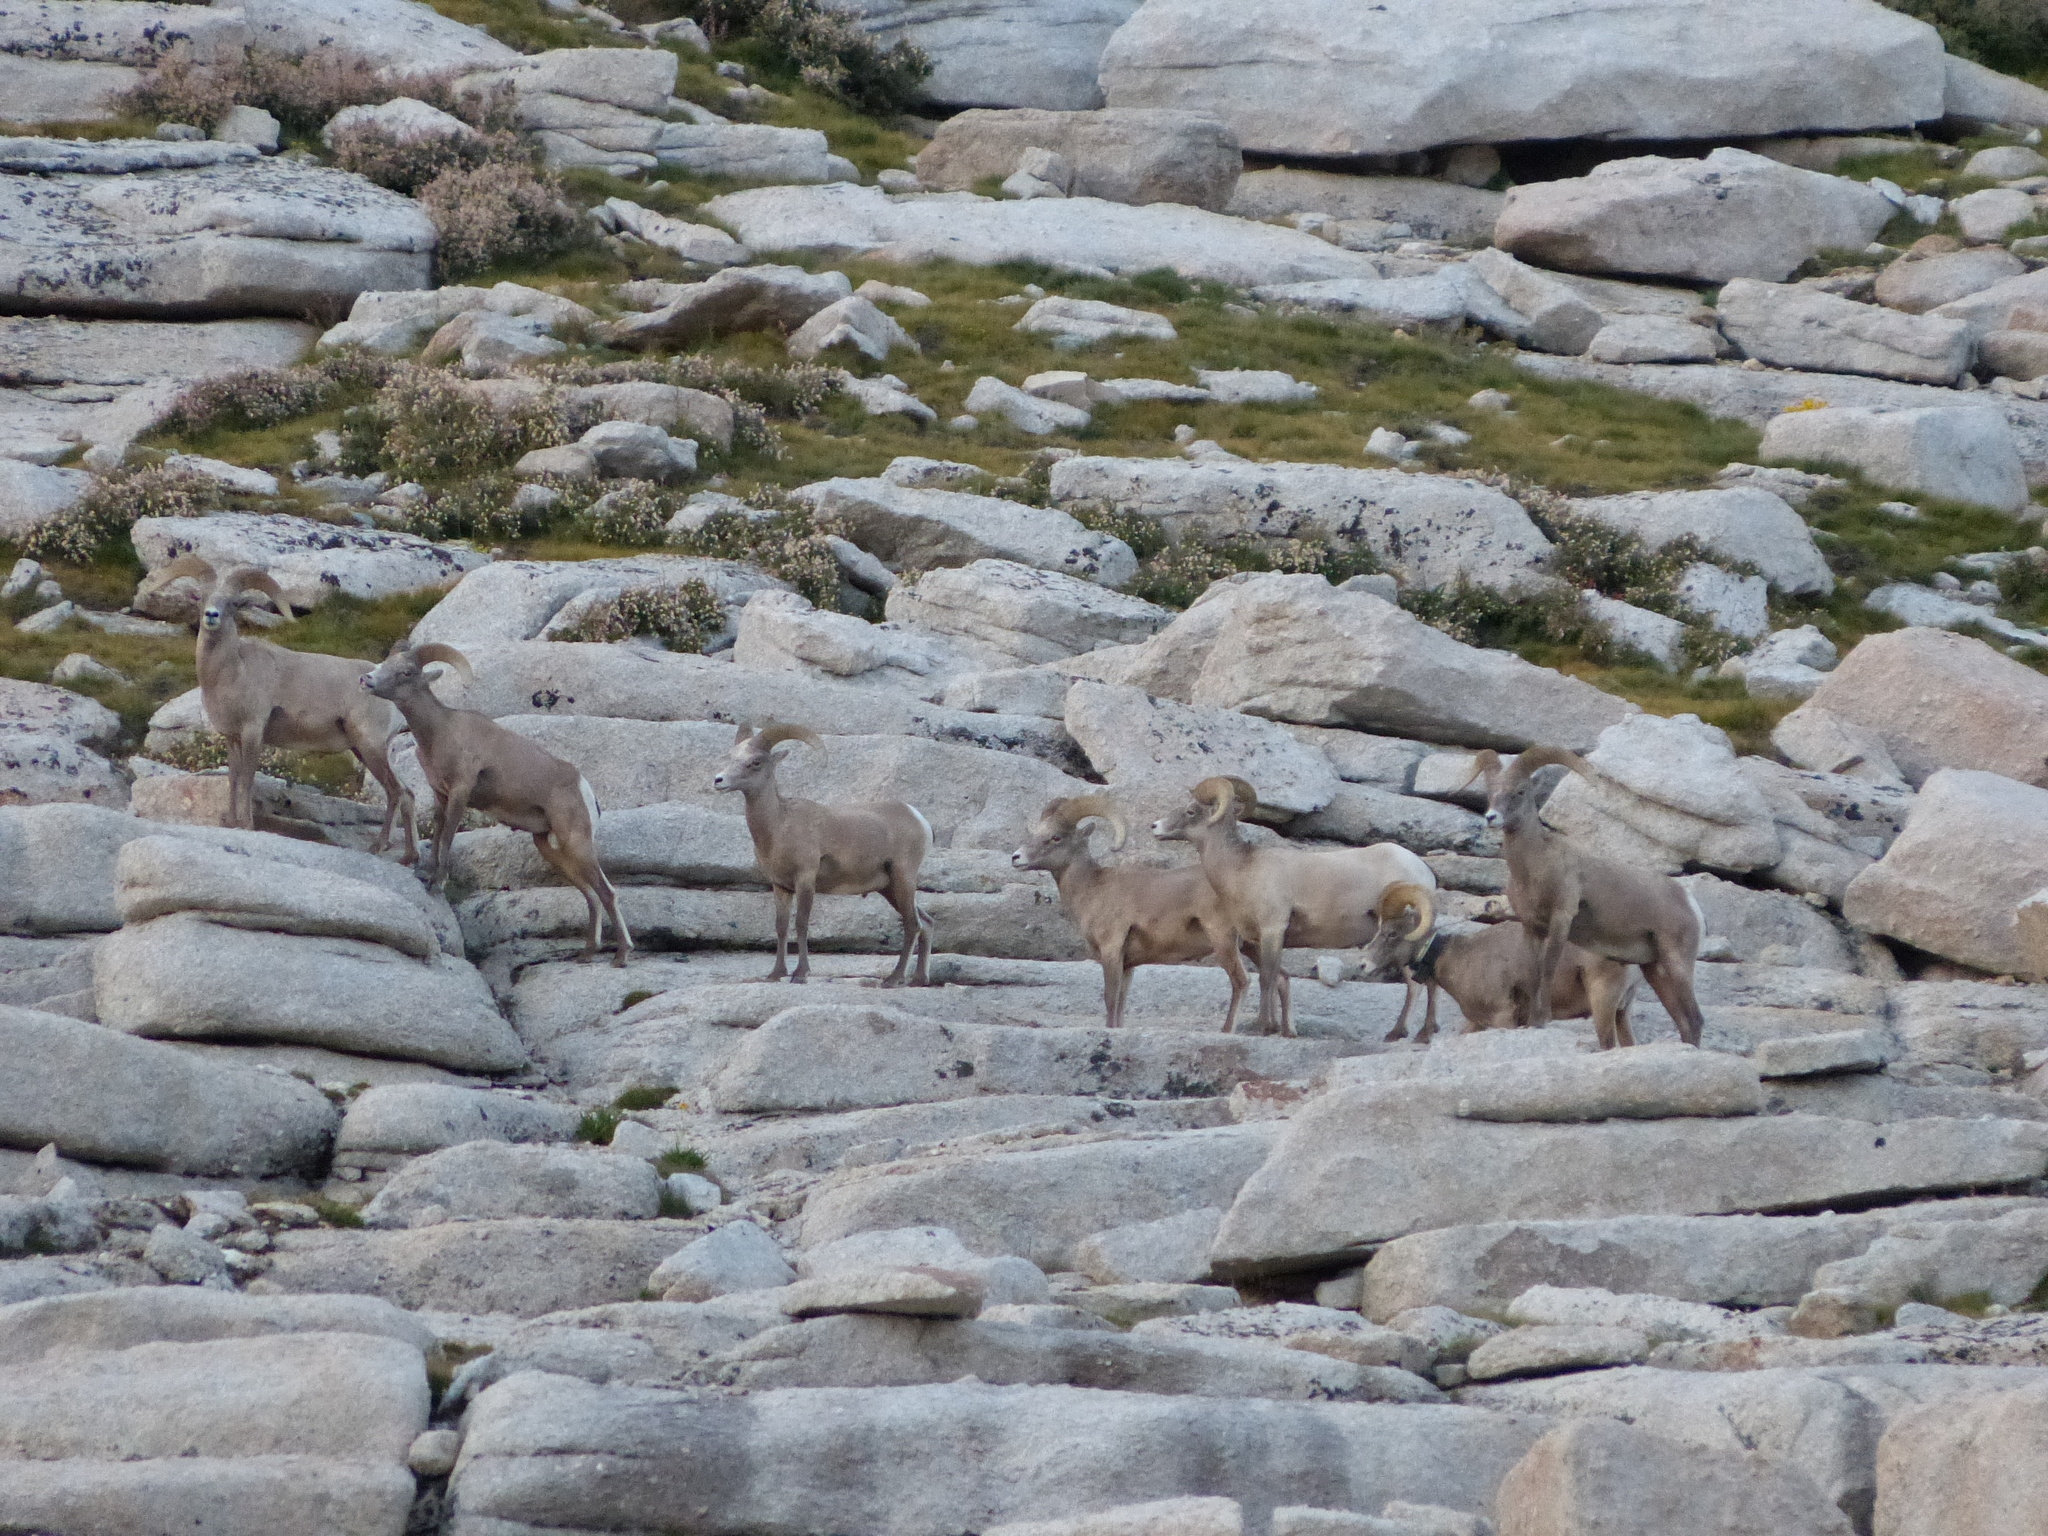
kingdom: Animalia
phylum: Chordata
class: Mammalia
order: Artiodactyla
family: Bovidae
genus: Ovis
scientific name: Ovis canadensis
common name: Bighorn sheep
